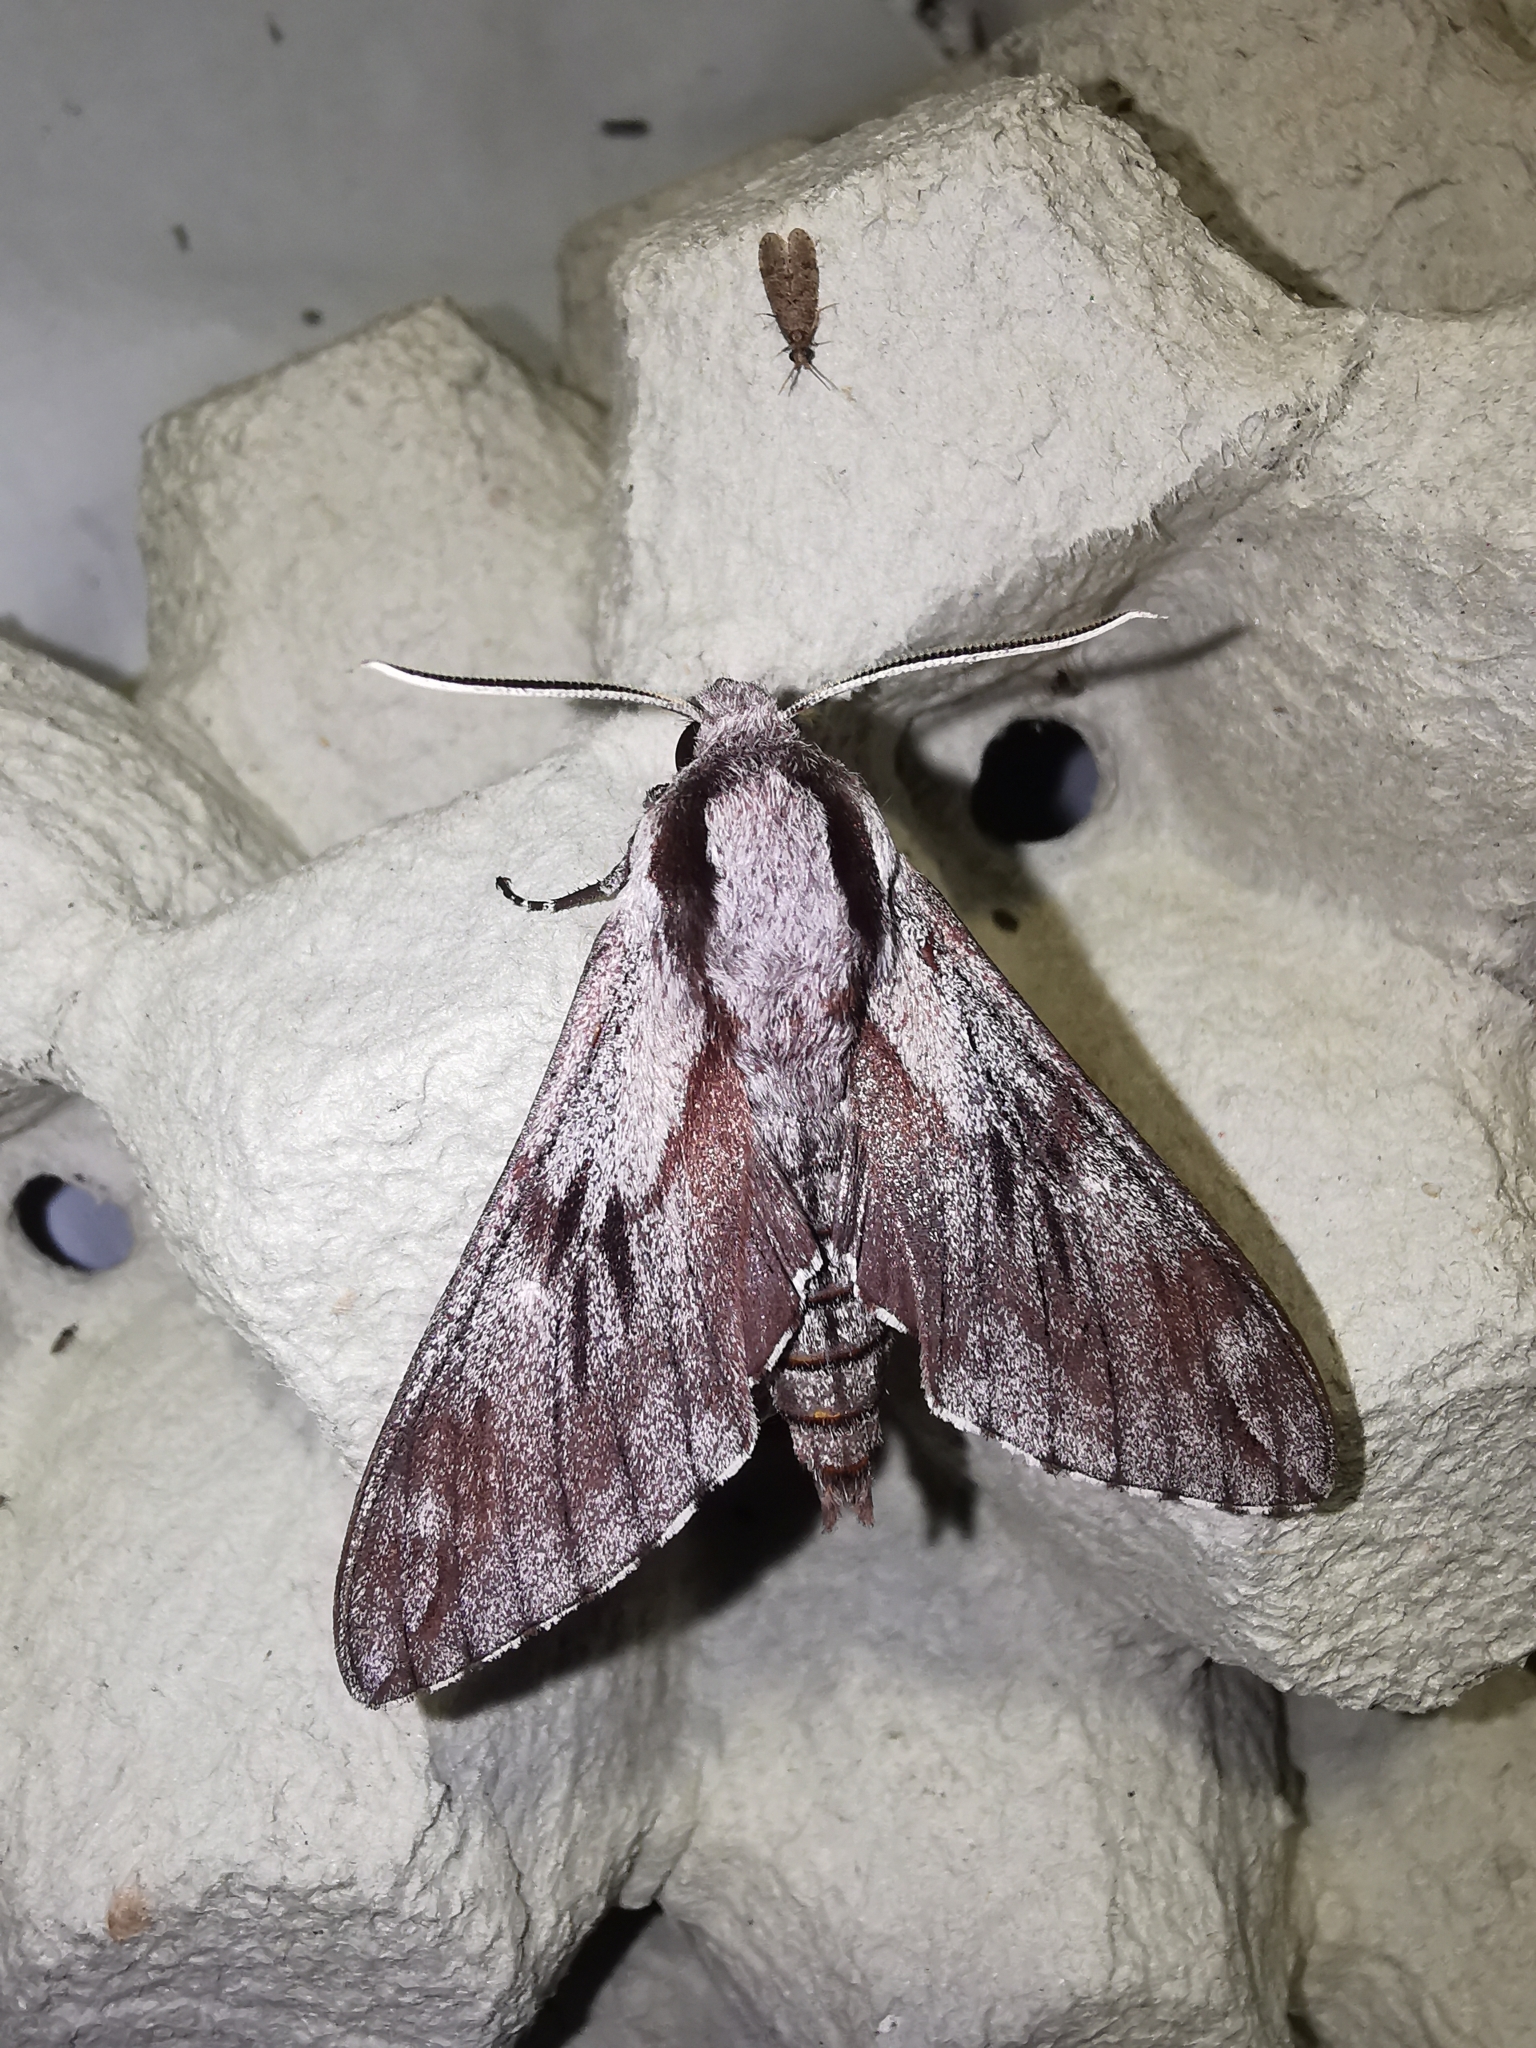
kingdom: Animalia
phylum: Arthropoda
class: Insecta
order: Lepidoptera
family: Sphingidae
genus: Sphinx
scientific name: Sphinx pinastri
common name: Pine hawk-moth
